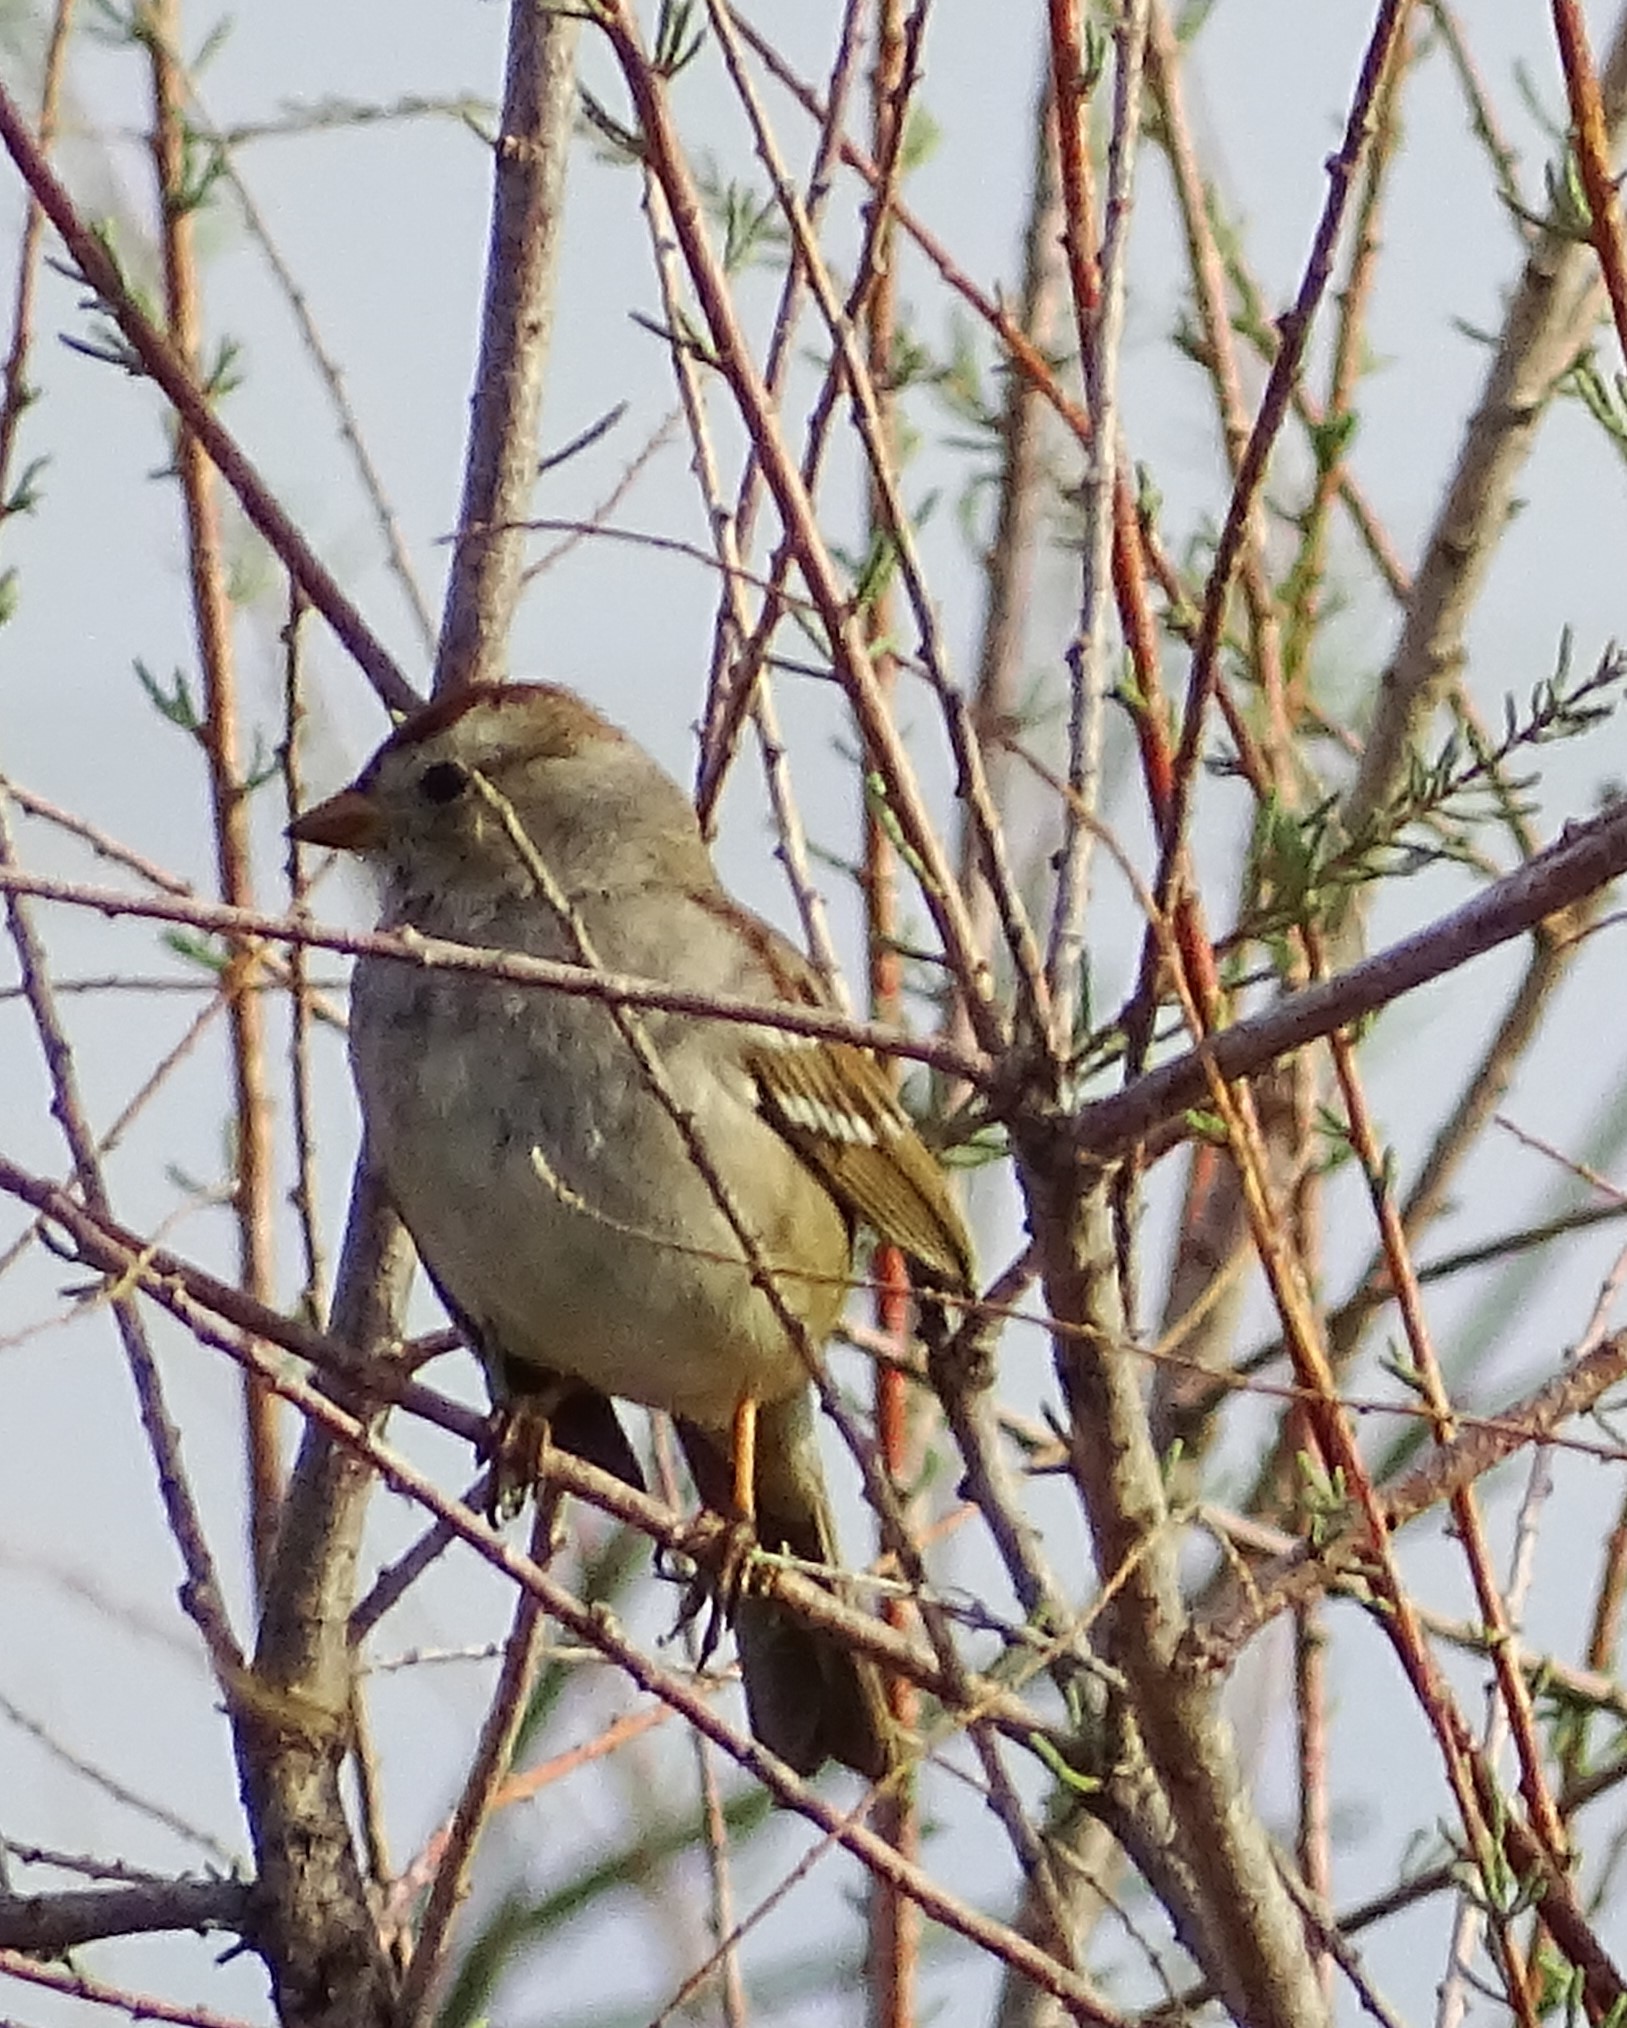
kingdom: Animalia
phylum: Chordata
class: Aves
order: Passeriformes
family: Passerellidae
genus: Zonotrichia
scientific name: Zonotrichia leucophrys
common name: White-crowned sparrow
